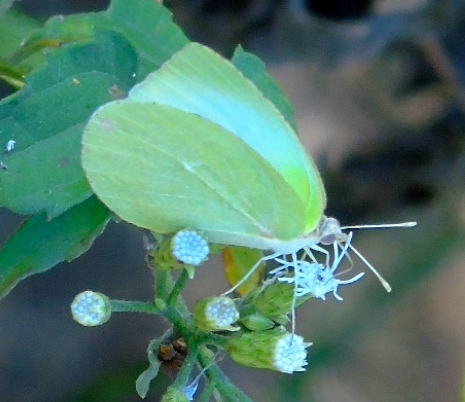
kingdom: Animalia
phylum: Arthropoda
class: Insecta
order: Lepidoptera
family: Pieridae
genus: Kricogonia
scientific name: Kricogonia lyside
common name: Guayacan sulphur,
